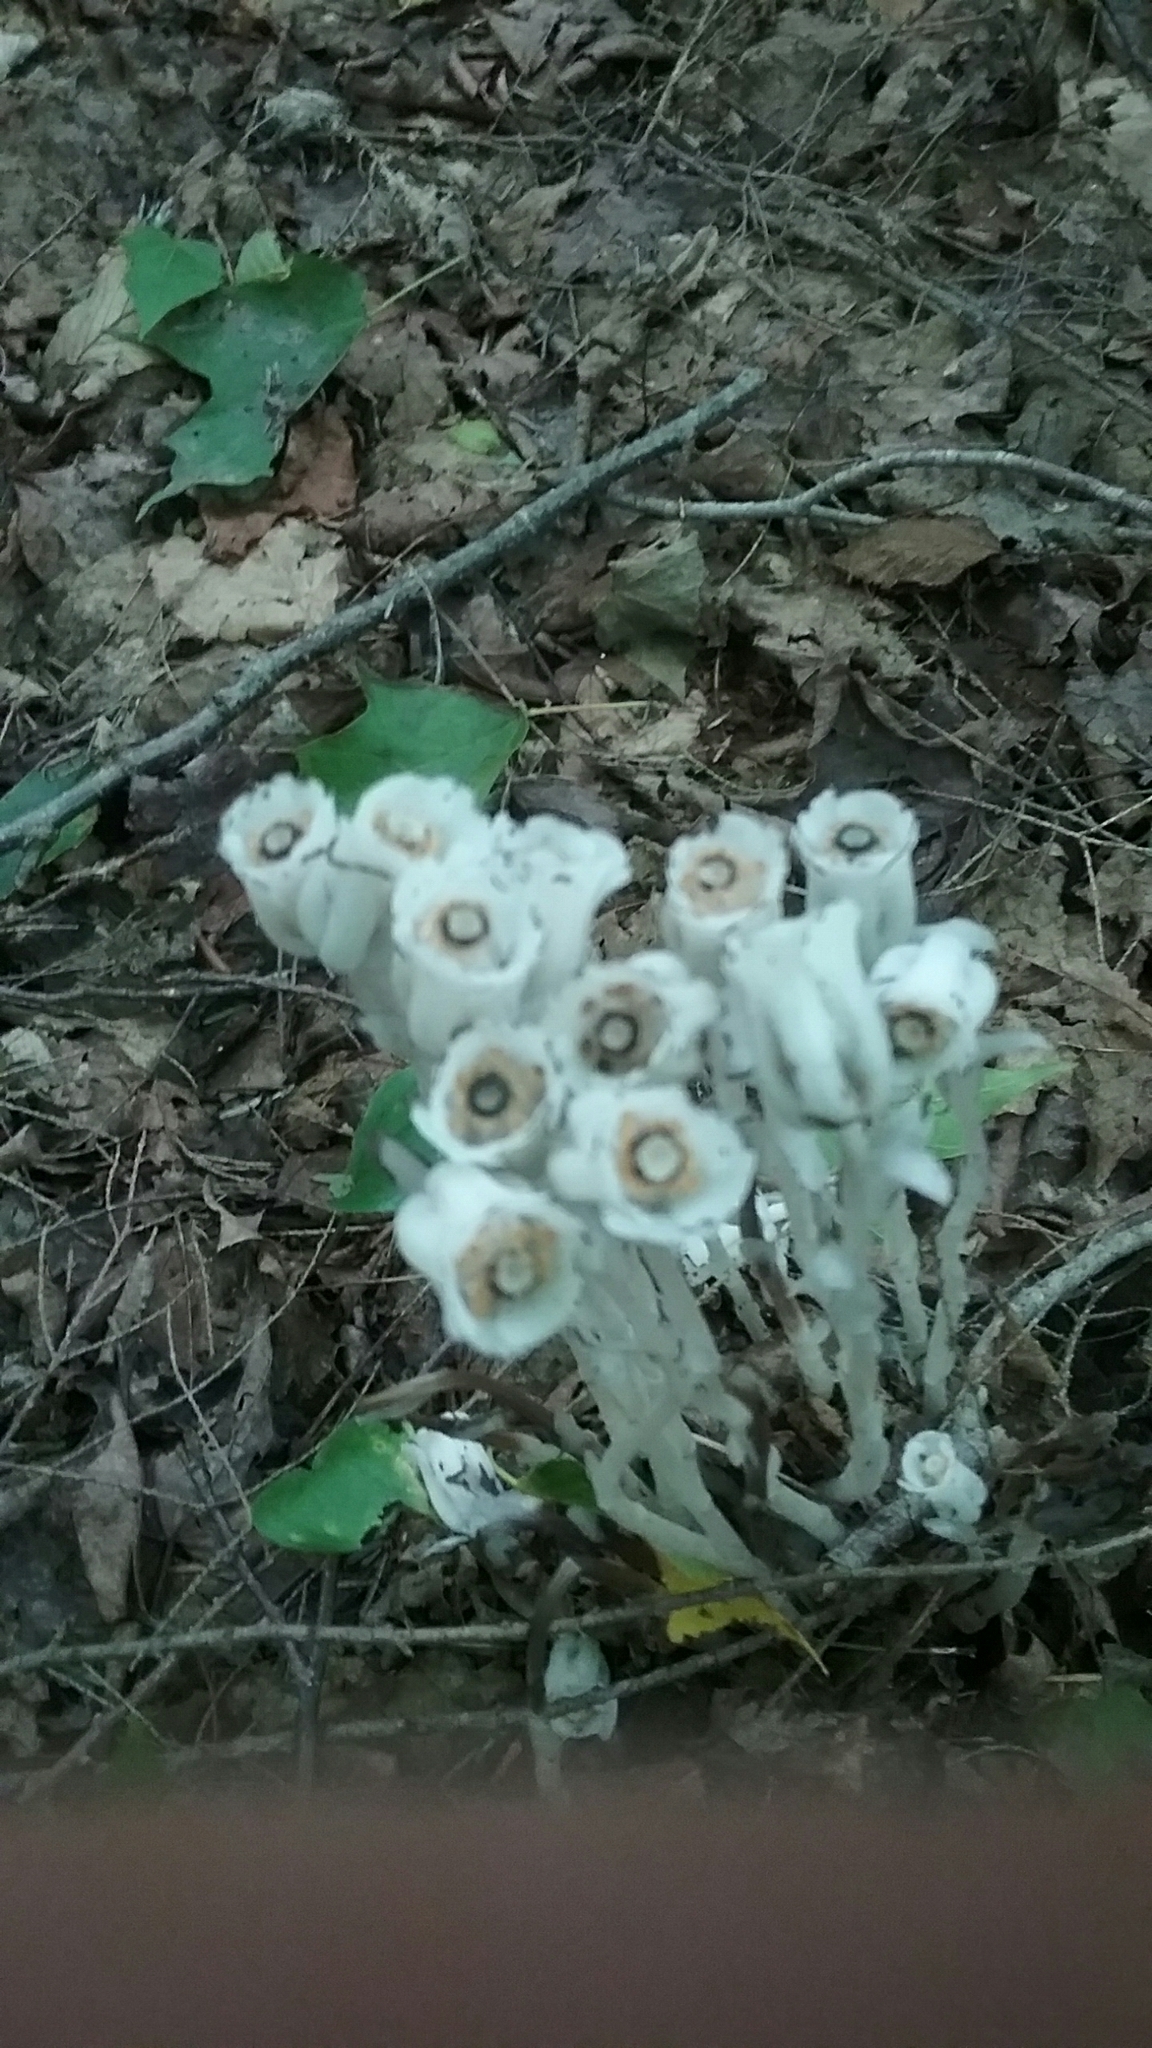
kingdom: Plantae
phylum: Tracheophyta
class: Magnoliopsida
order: Ericales
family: Ericaceae
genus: Monotropa
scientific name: Monotropa uniflora
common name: Convulsion root
